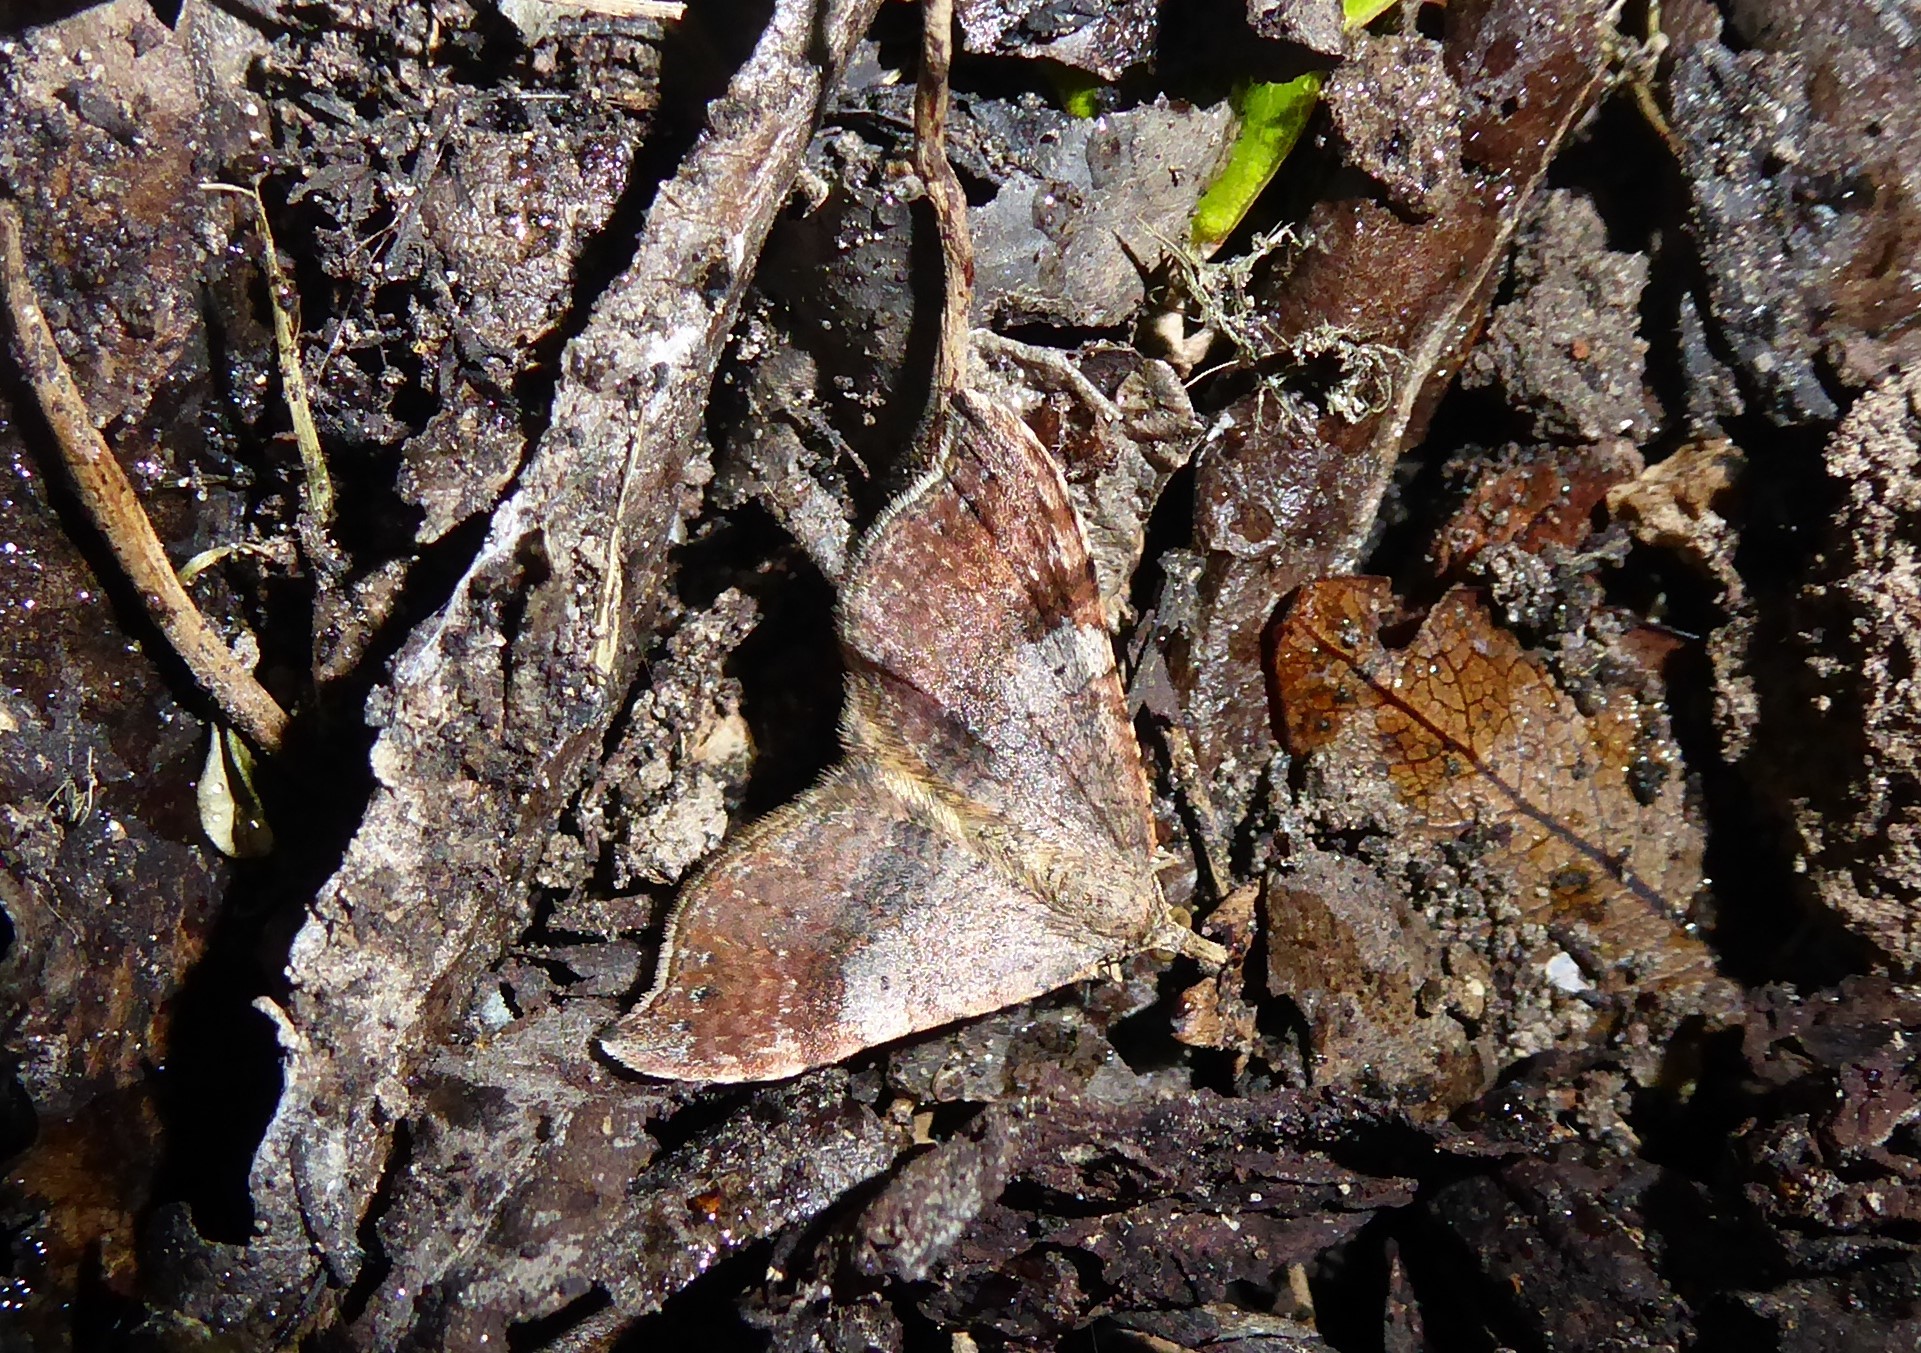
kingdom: Animalia
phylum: Arthropoda
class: Insecta
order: Lepidoptera
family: Geometridae
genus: Homodotis
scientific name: Homodotis megaspilata
